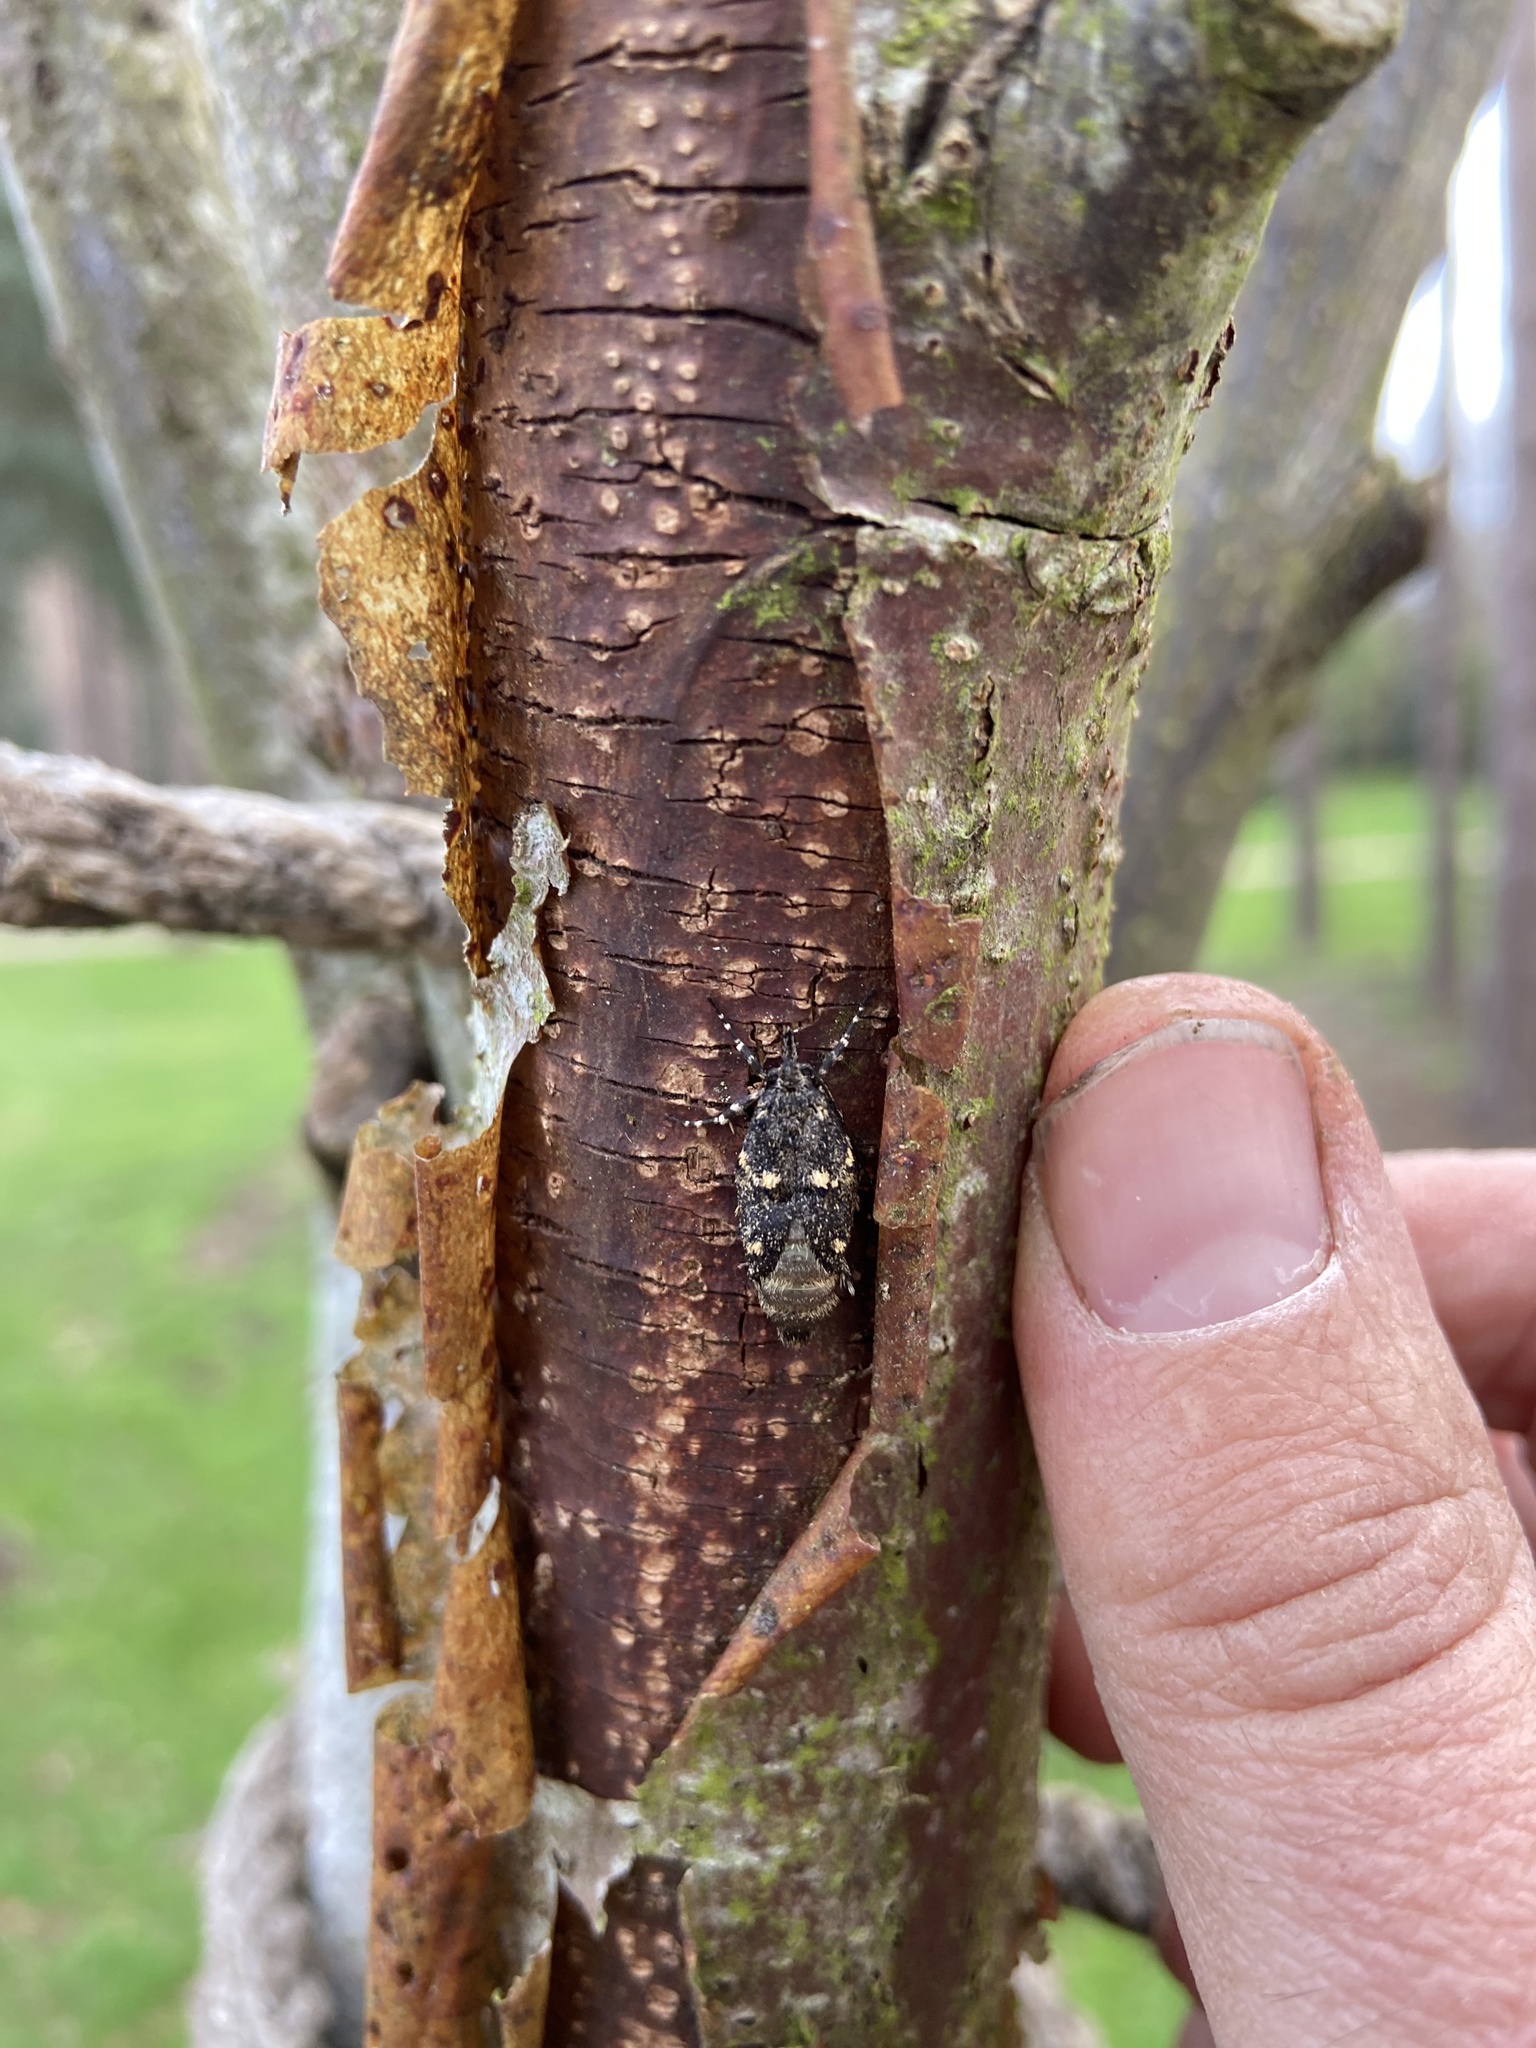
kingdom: Animalia
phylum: Arthropoda
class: Insecta
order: Lepidoptera
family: Lypusidae
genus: Diurnea
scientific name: Diurnea fagella
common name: March tubic
